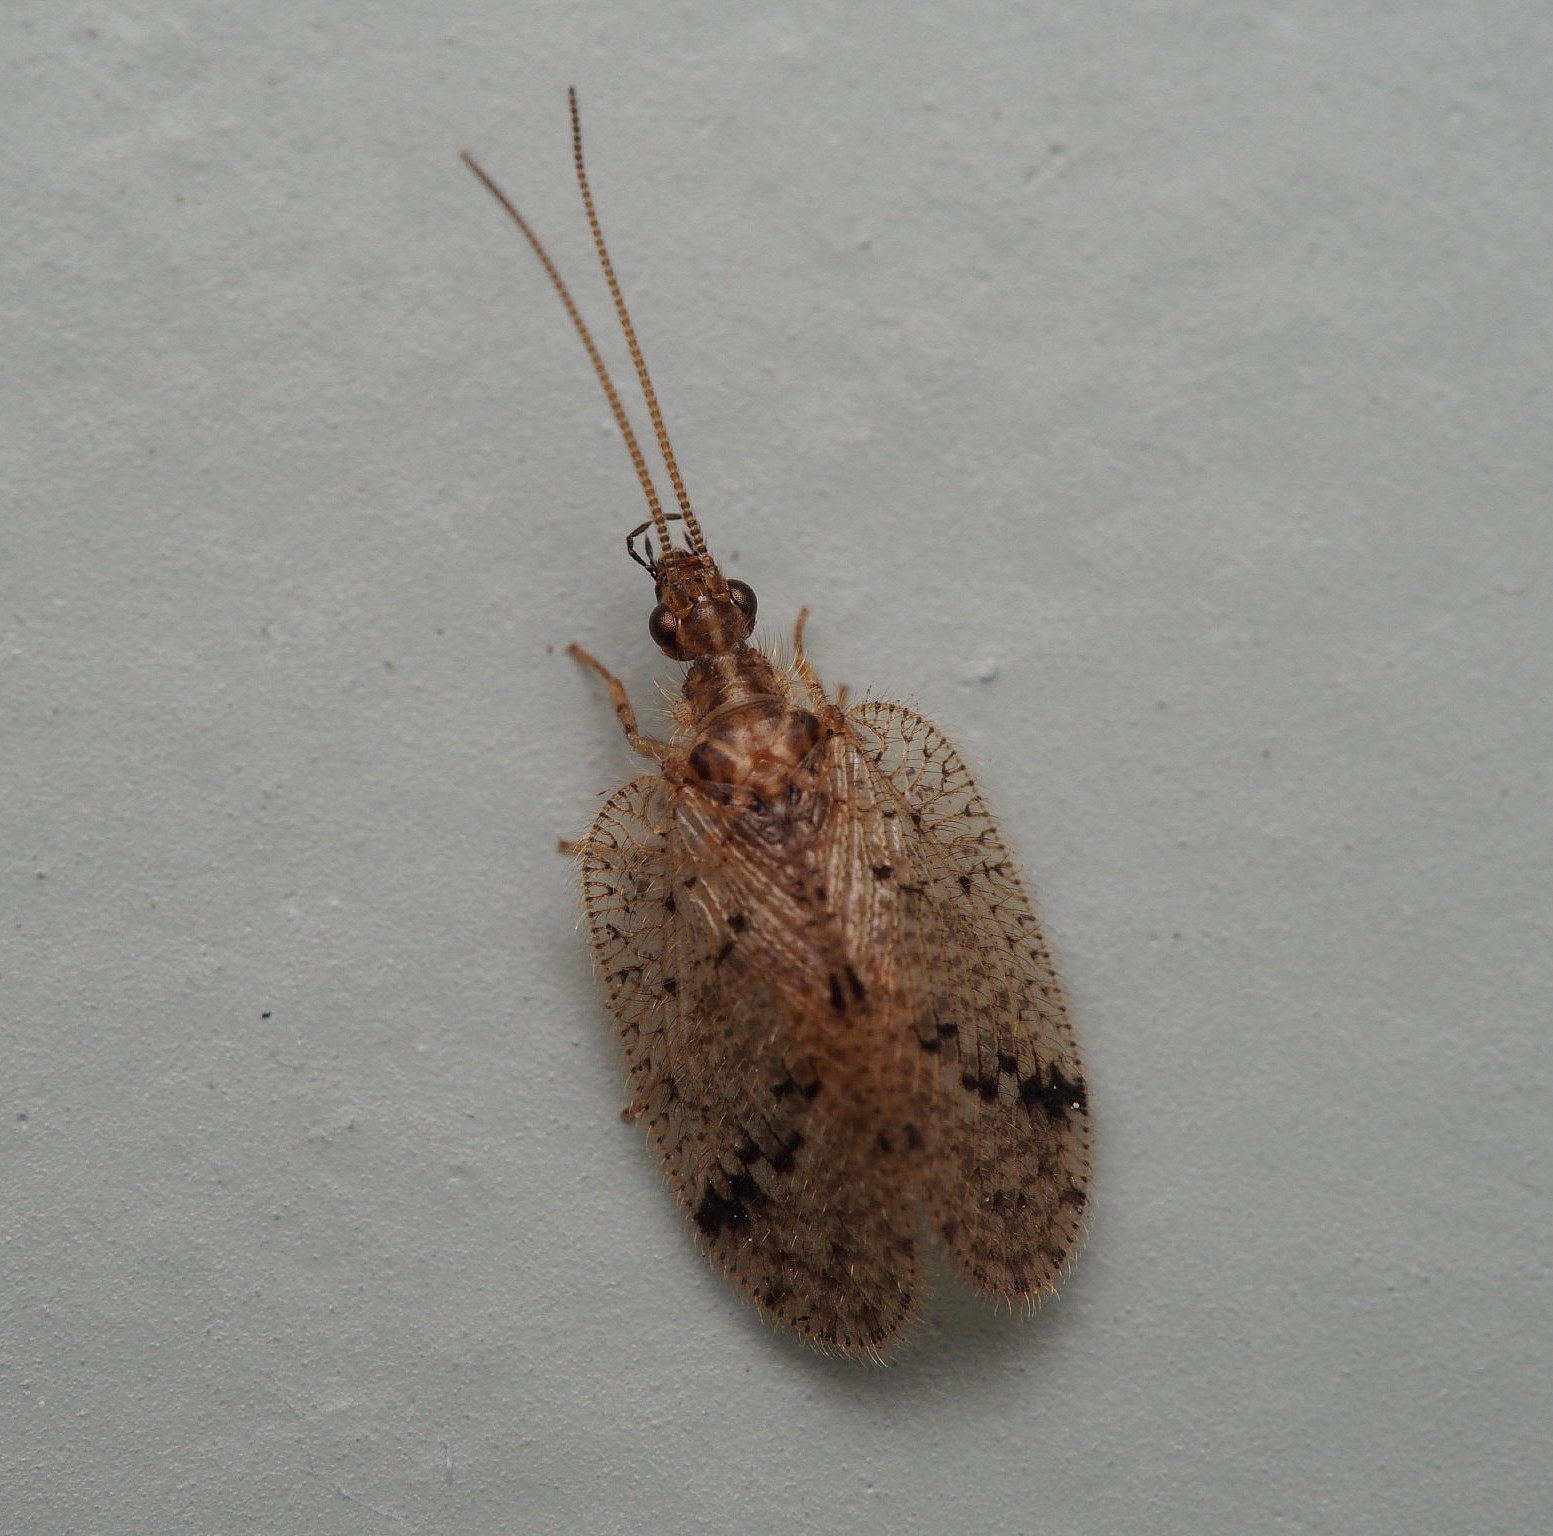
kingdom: Animalia
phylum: Arthropoda
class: Insecta
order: Neuroptera
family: Hemerobiidae
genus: Psectra
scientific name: Psectra nakaharai
